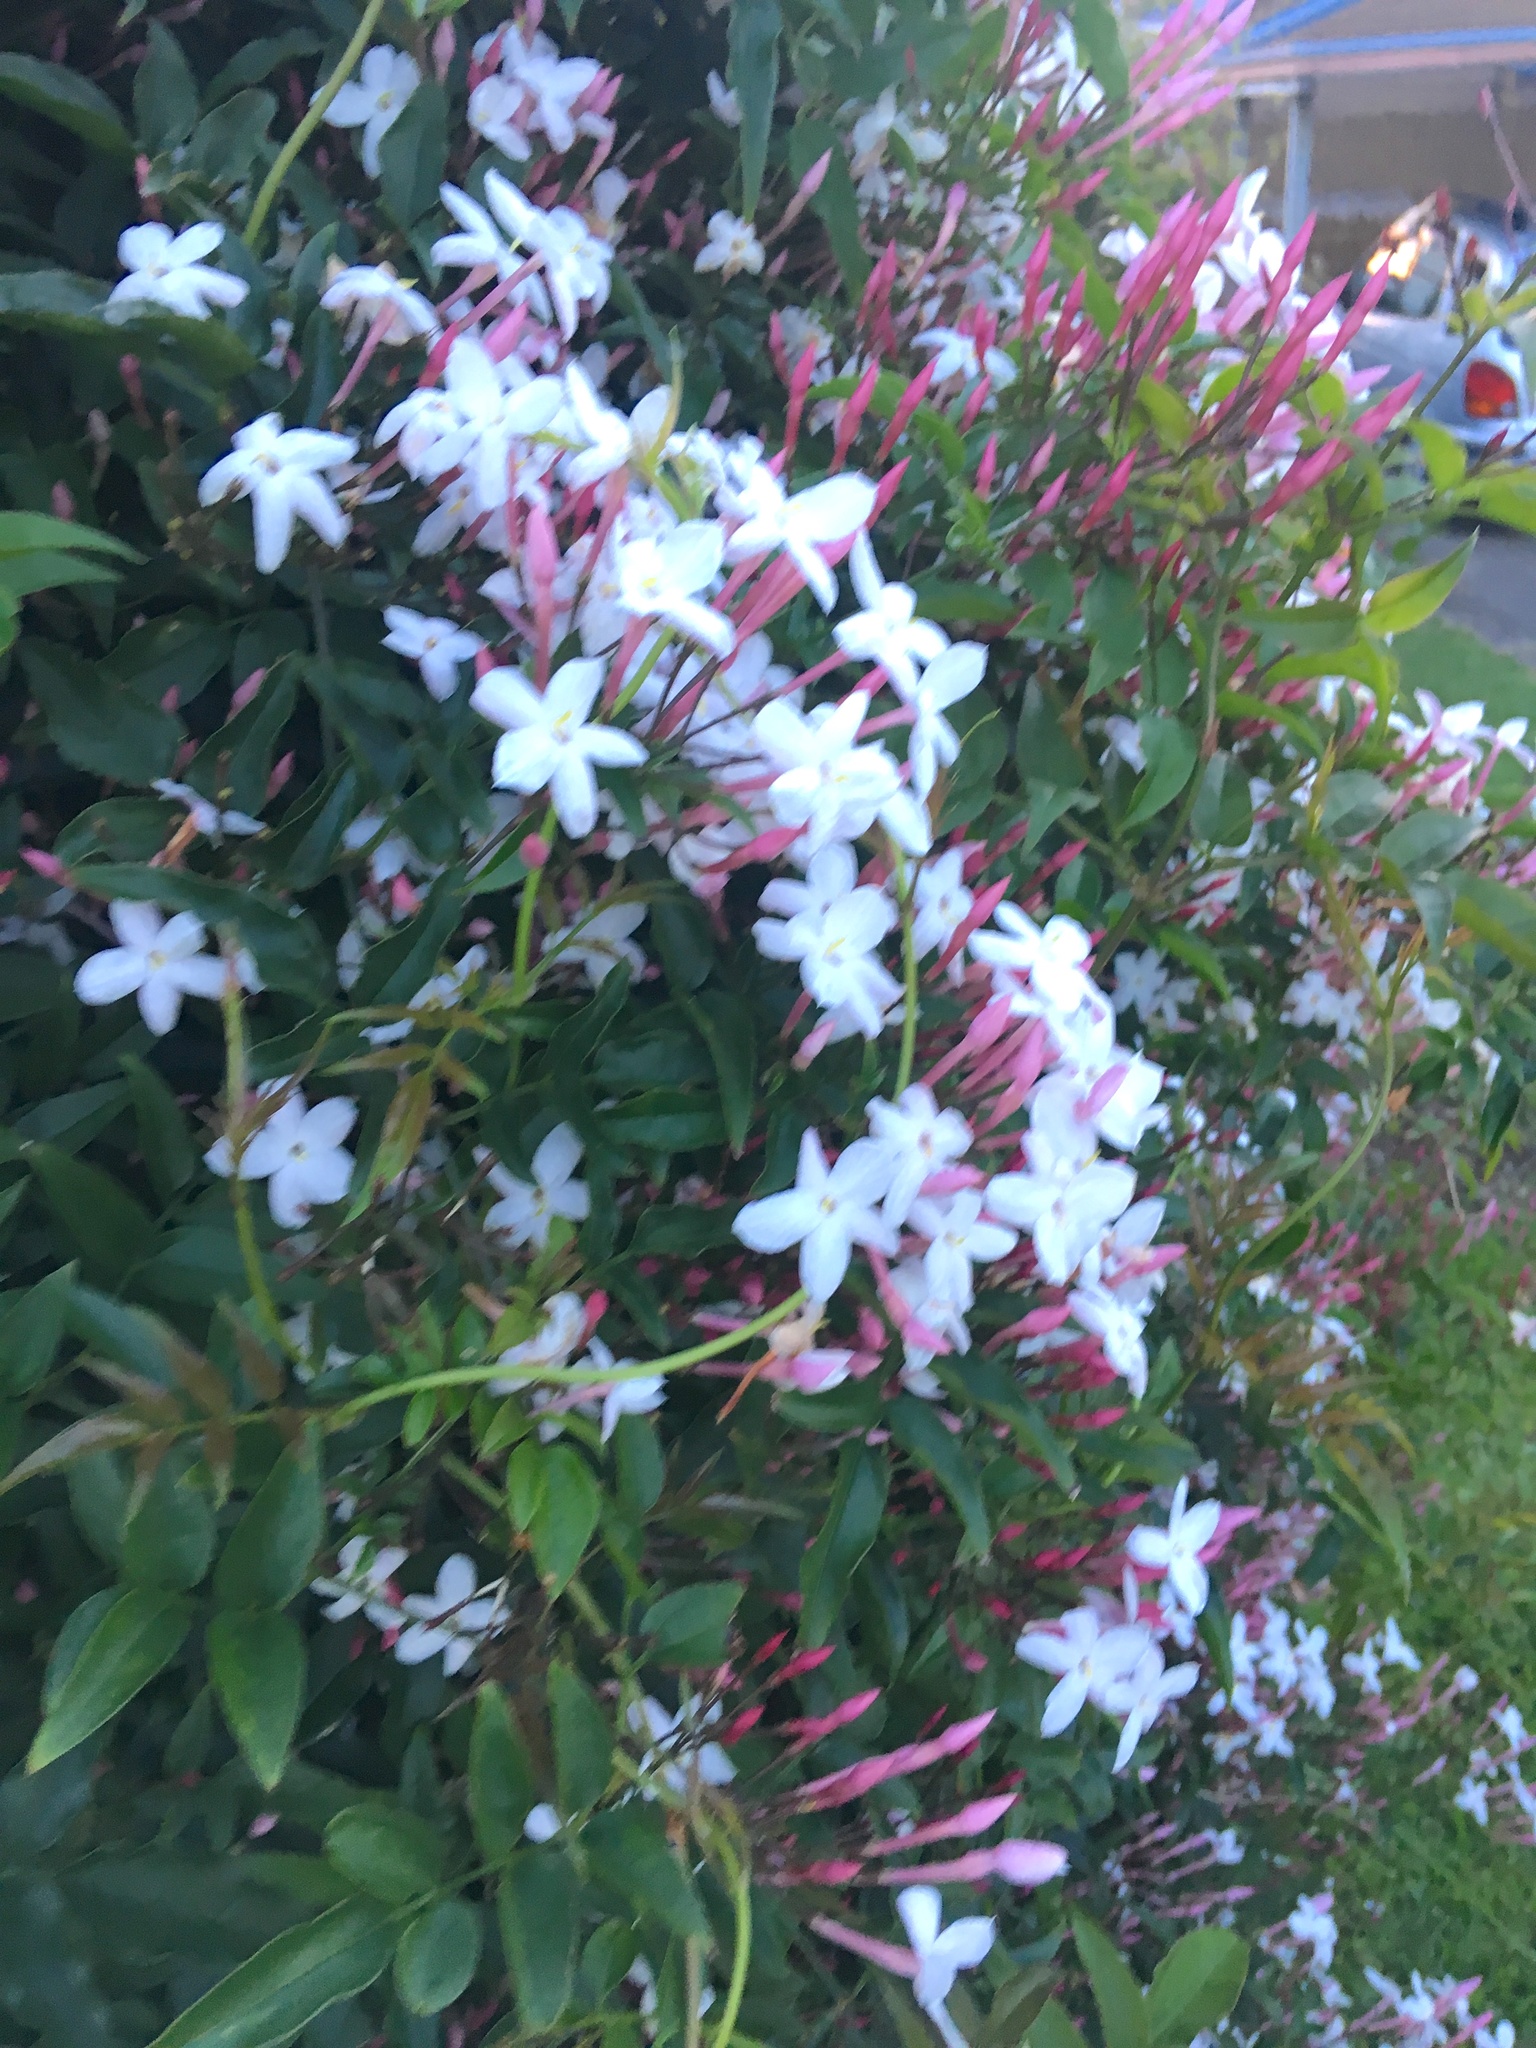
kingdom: Plantae
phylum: Tracheophyta
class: Magnoliopsida
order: Lamiales
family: Oleaceae
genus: Jasminum
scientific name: Jasminum polyanthum
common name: Pink jasmine
